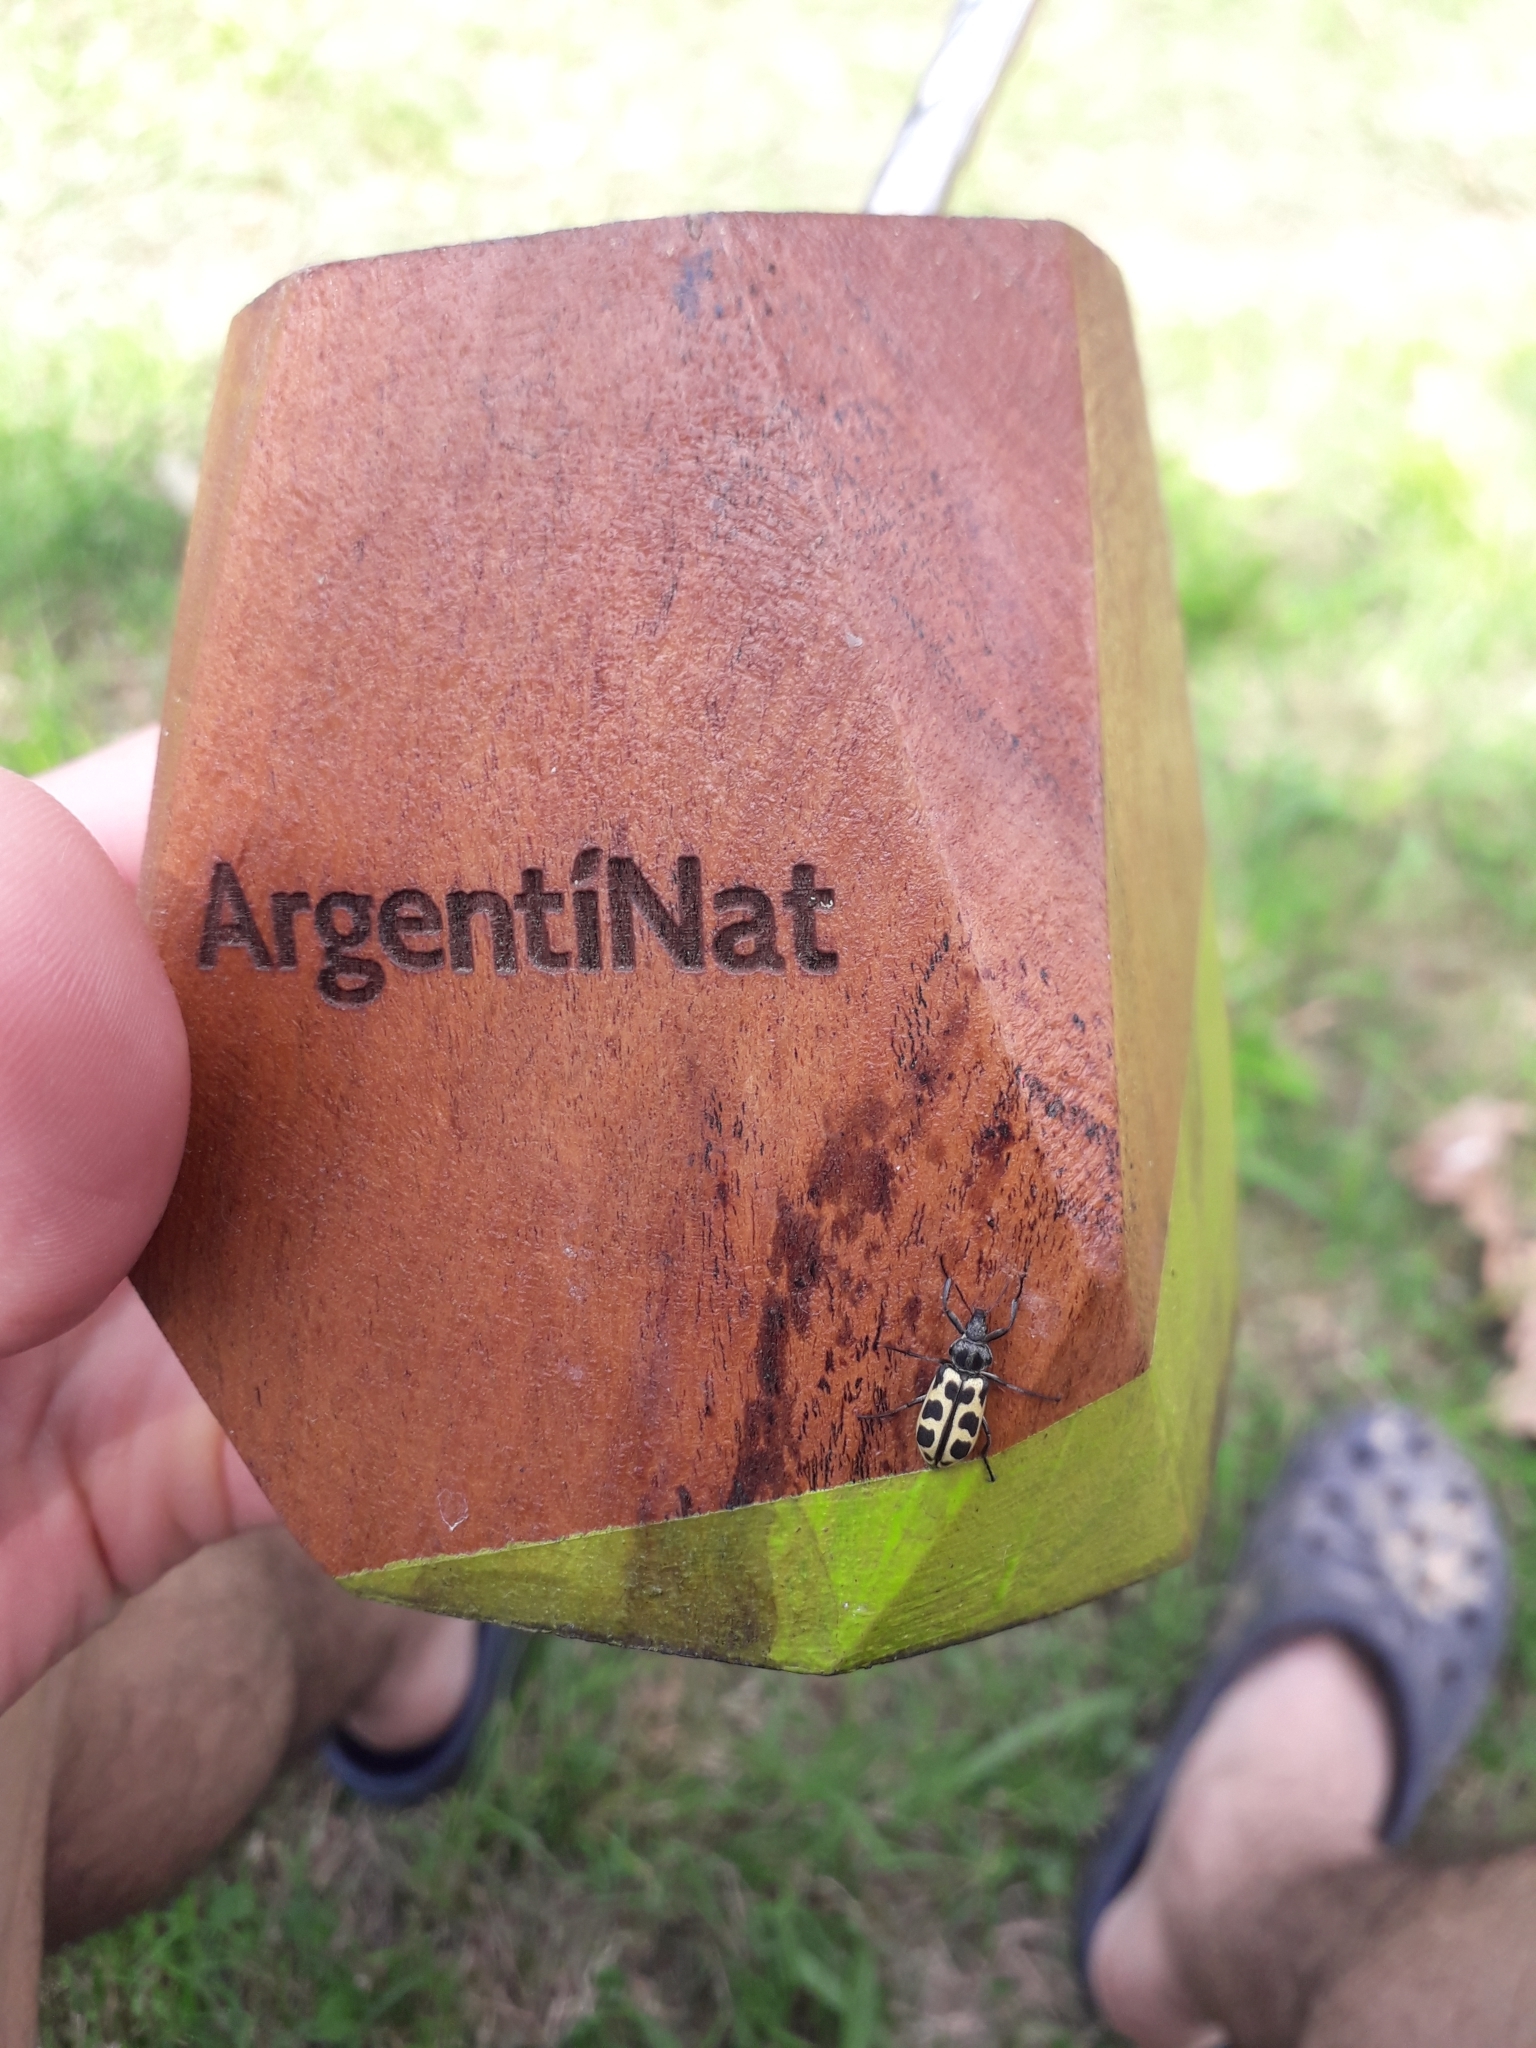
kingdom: Animalia
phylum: Arthropoda
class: Insecta
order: Coleoptera
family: Melyridae
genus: Astylus
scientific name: Astylus atromaculatus
